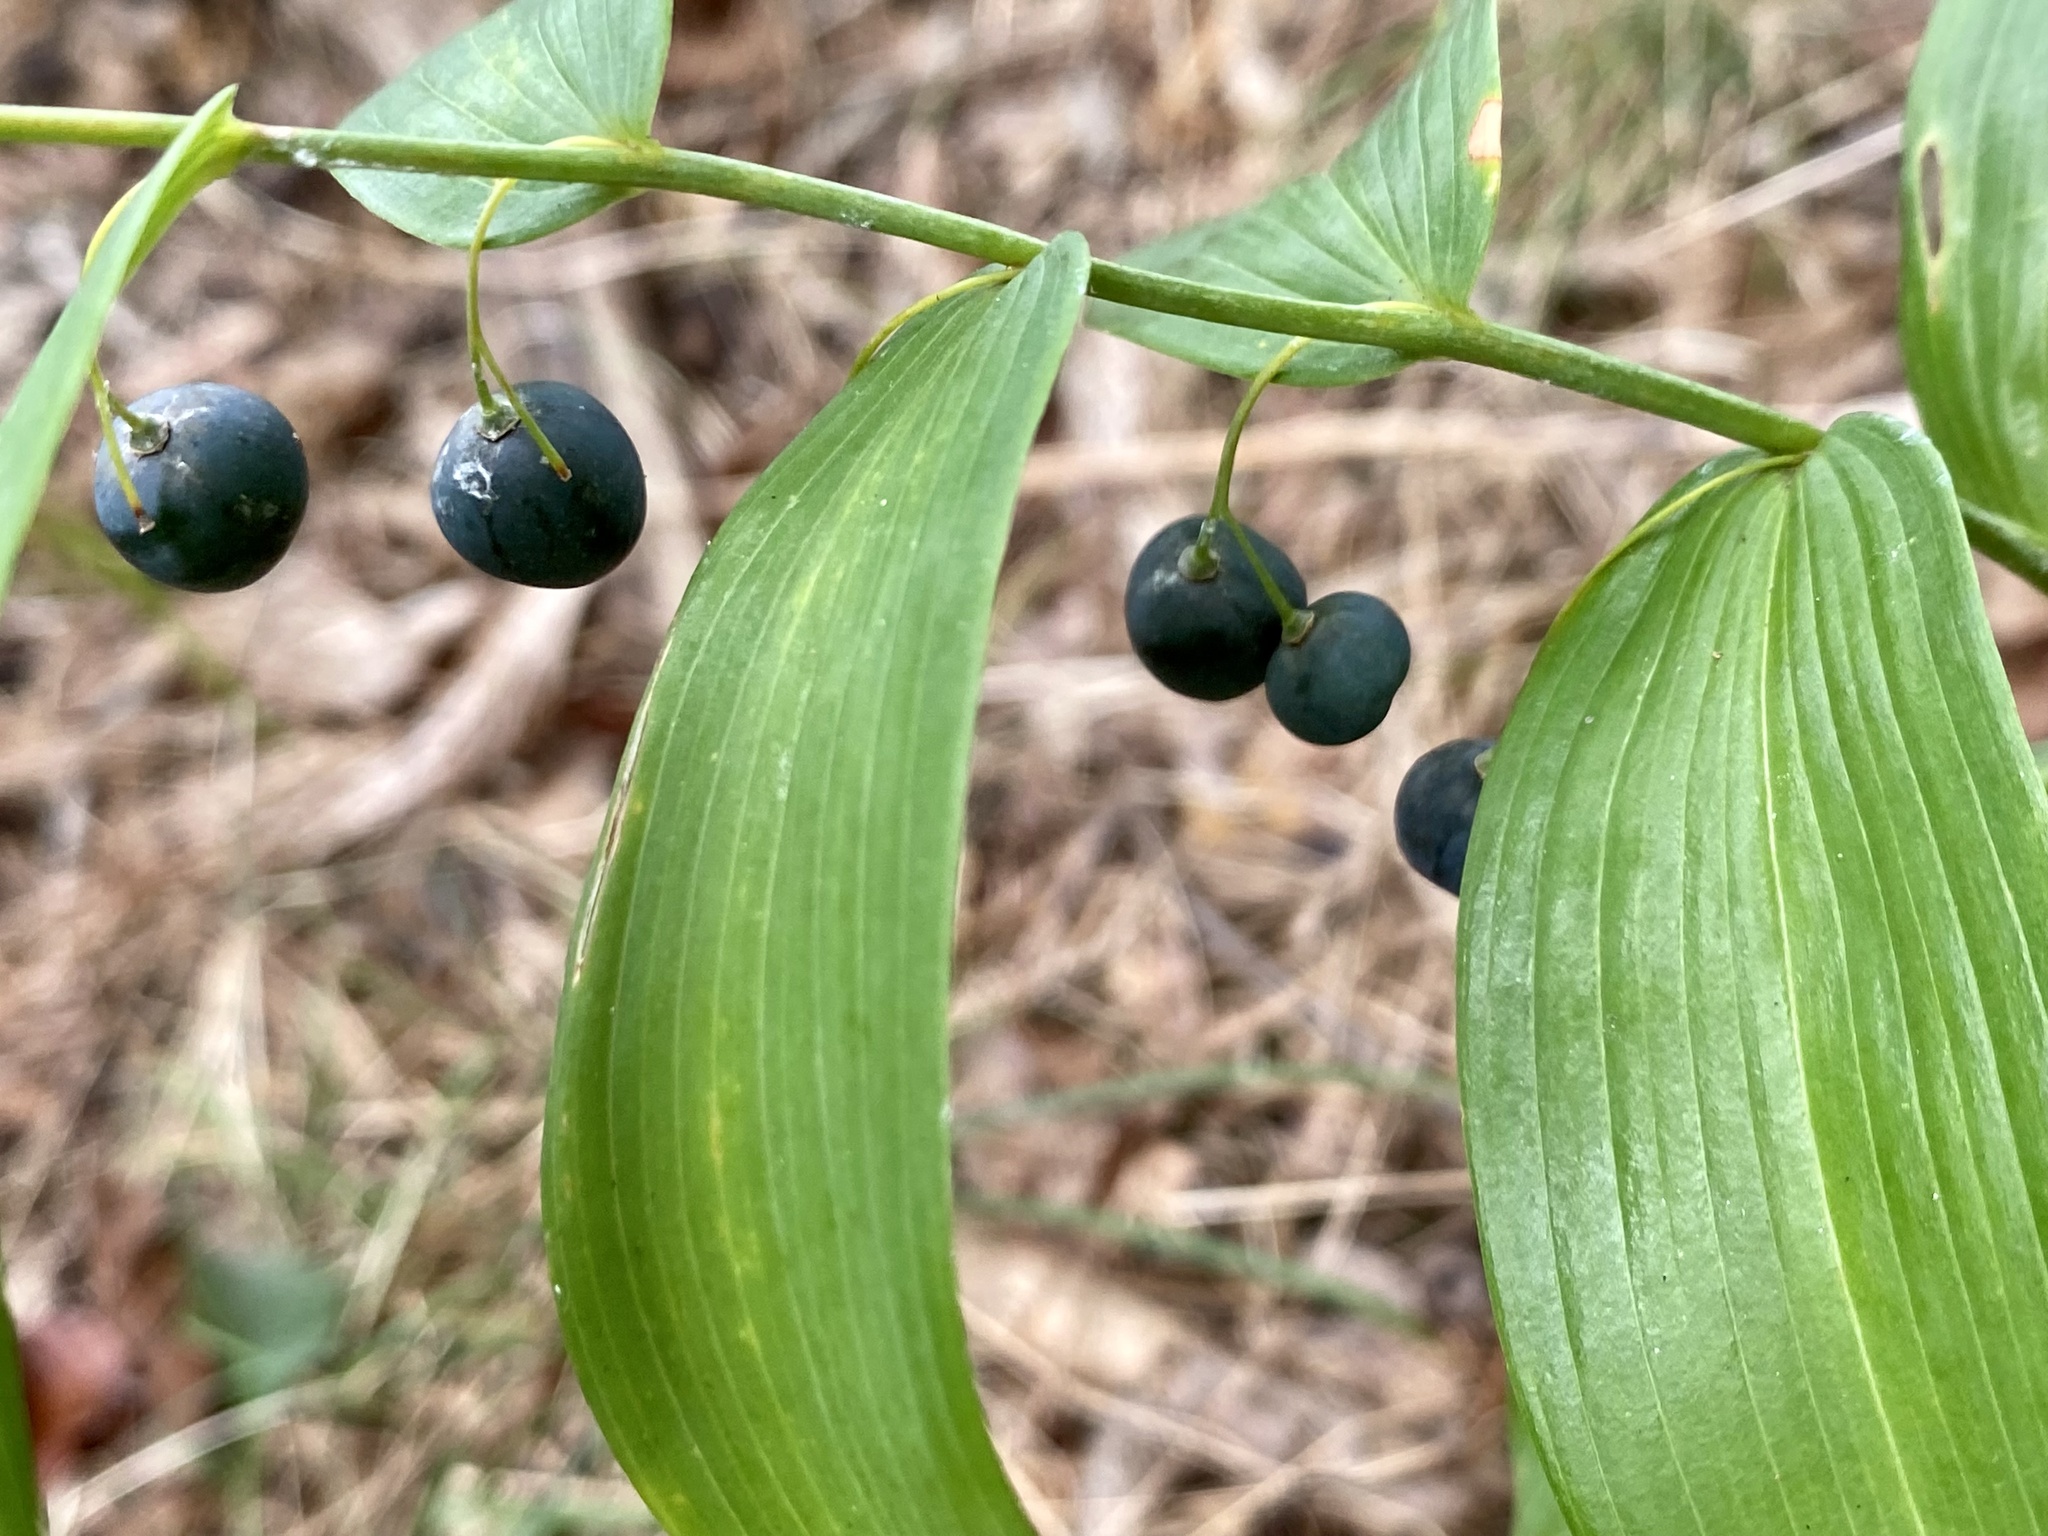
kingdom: Plantae
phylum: Tracheophyta
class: Liliopsida
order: Asparagales
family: Asparagaceae
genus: Polygonatum
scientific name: Polygonatum biflorum
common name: American solomon's-seal
